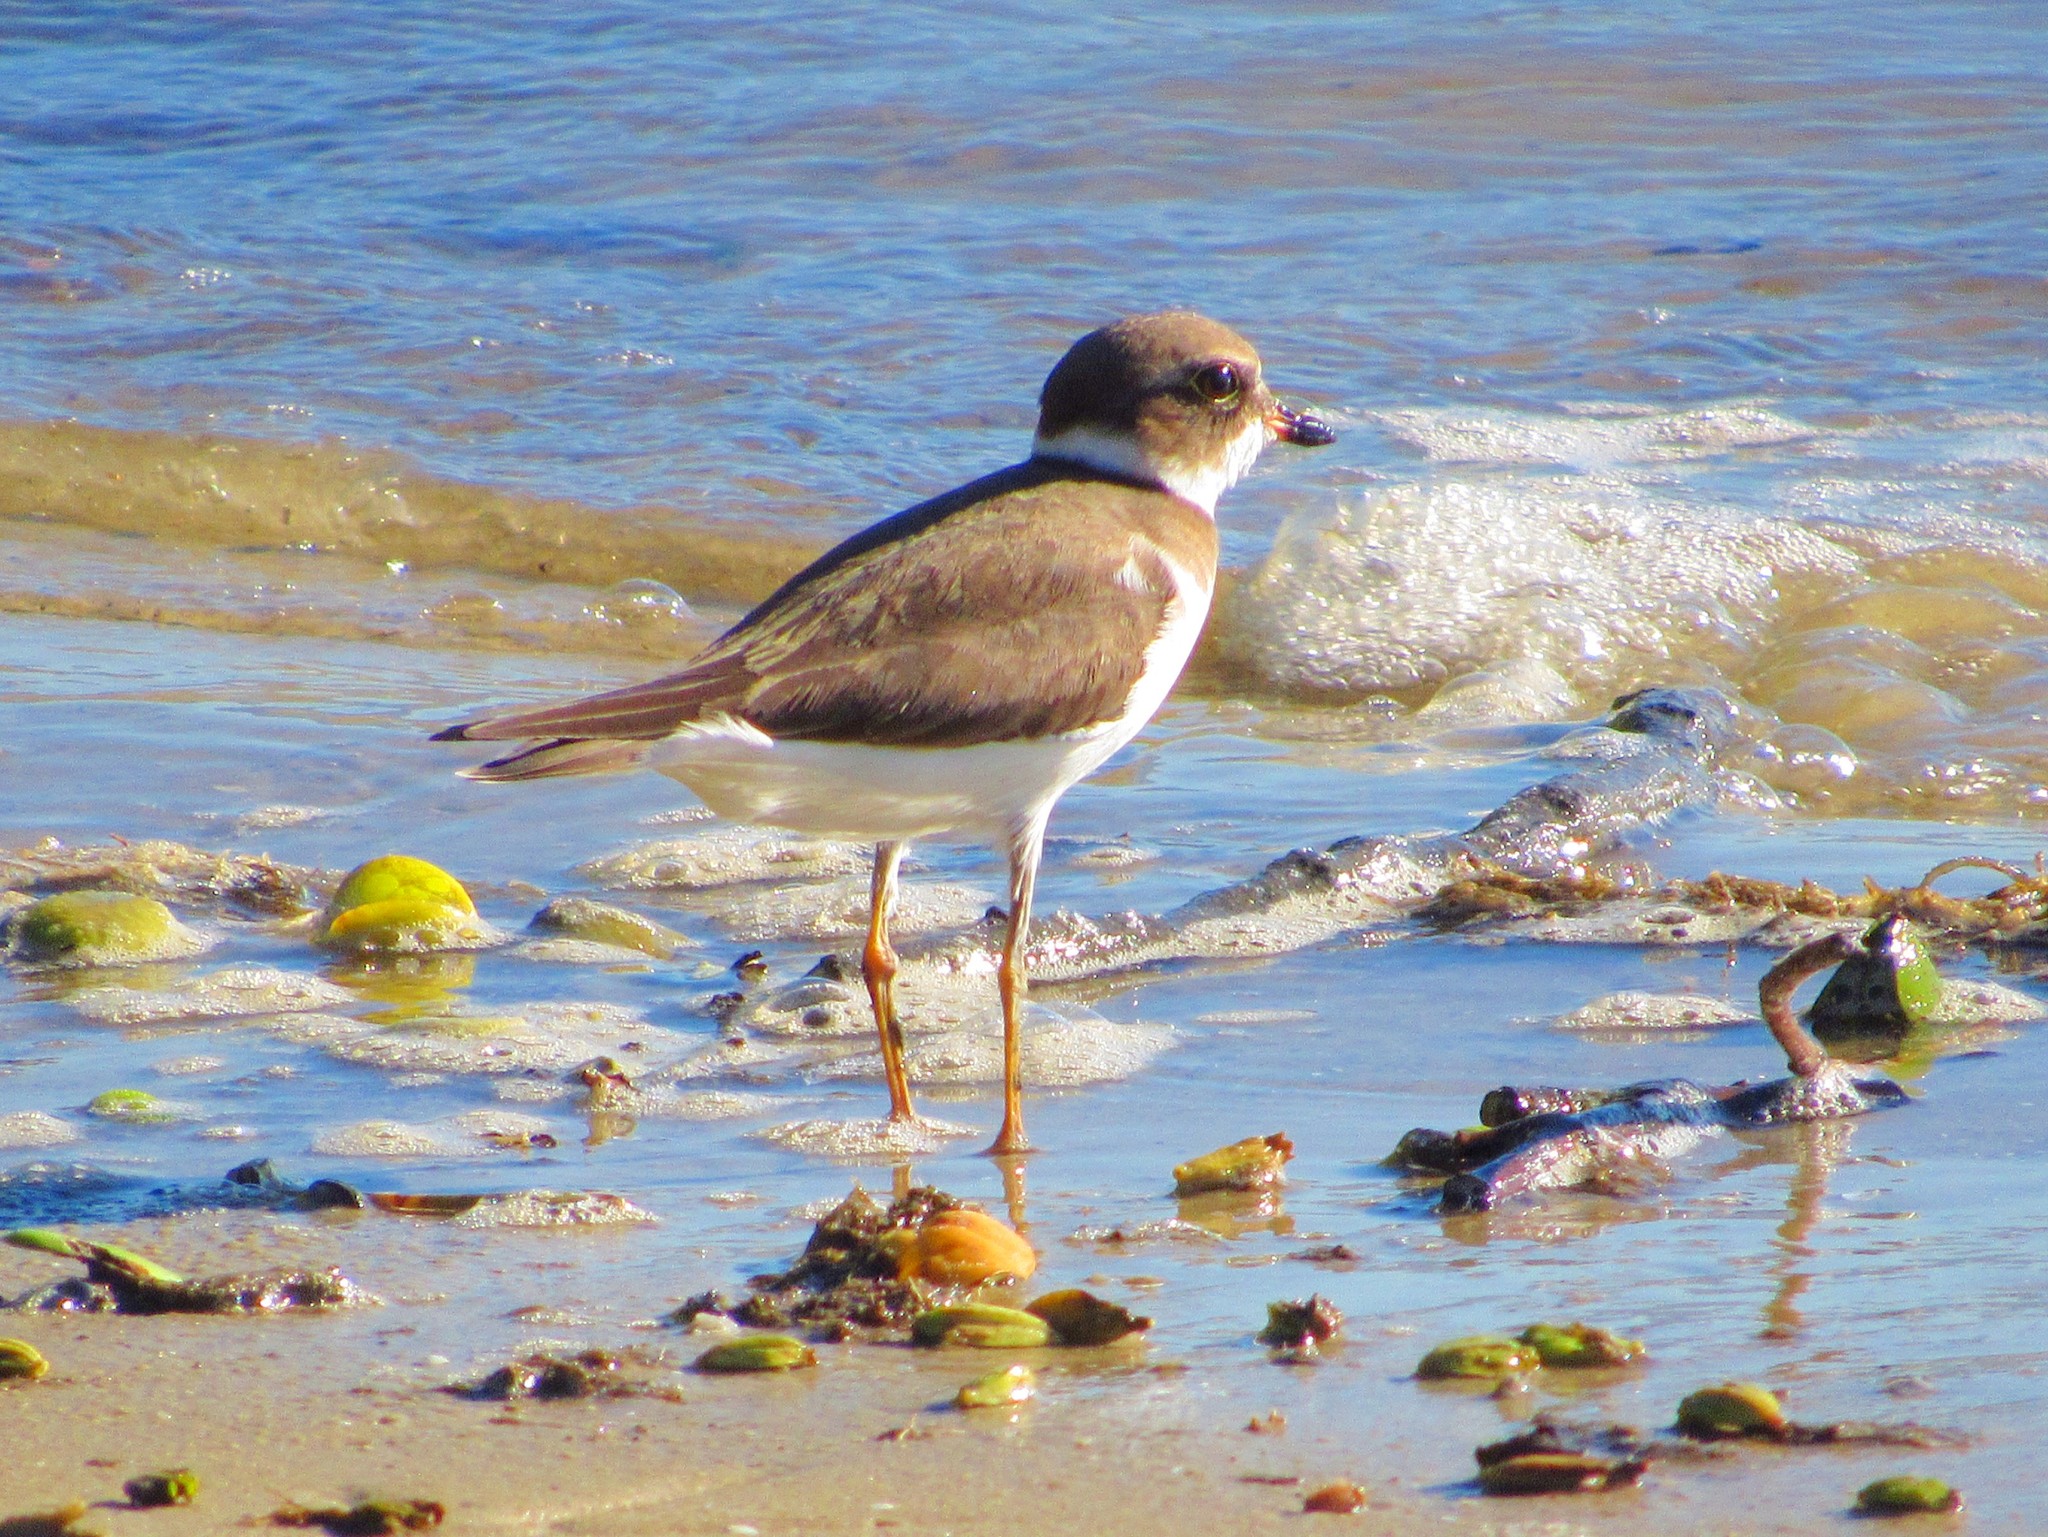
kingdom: Animalia
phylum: Chordata
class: Aves
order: Charadriiformes
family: Charadriidae
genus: Charadrius
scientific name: Charadrius semipalmatus
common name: Semipalmated plover
